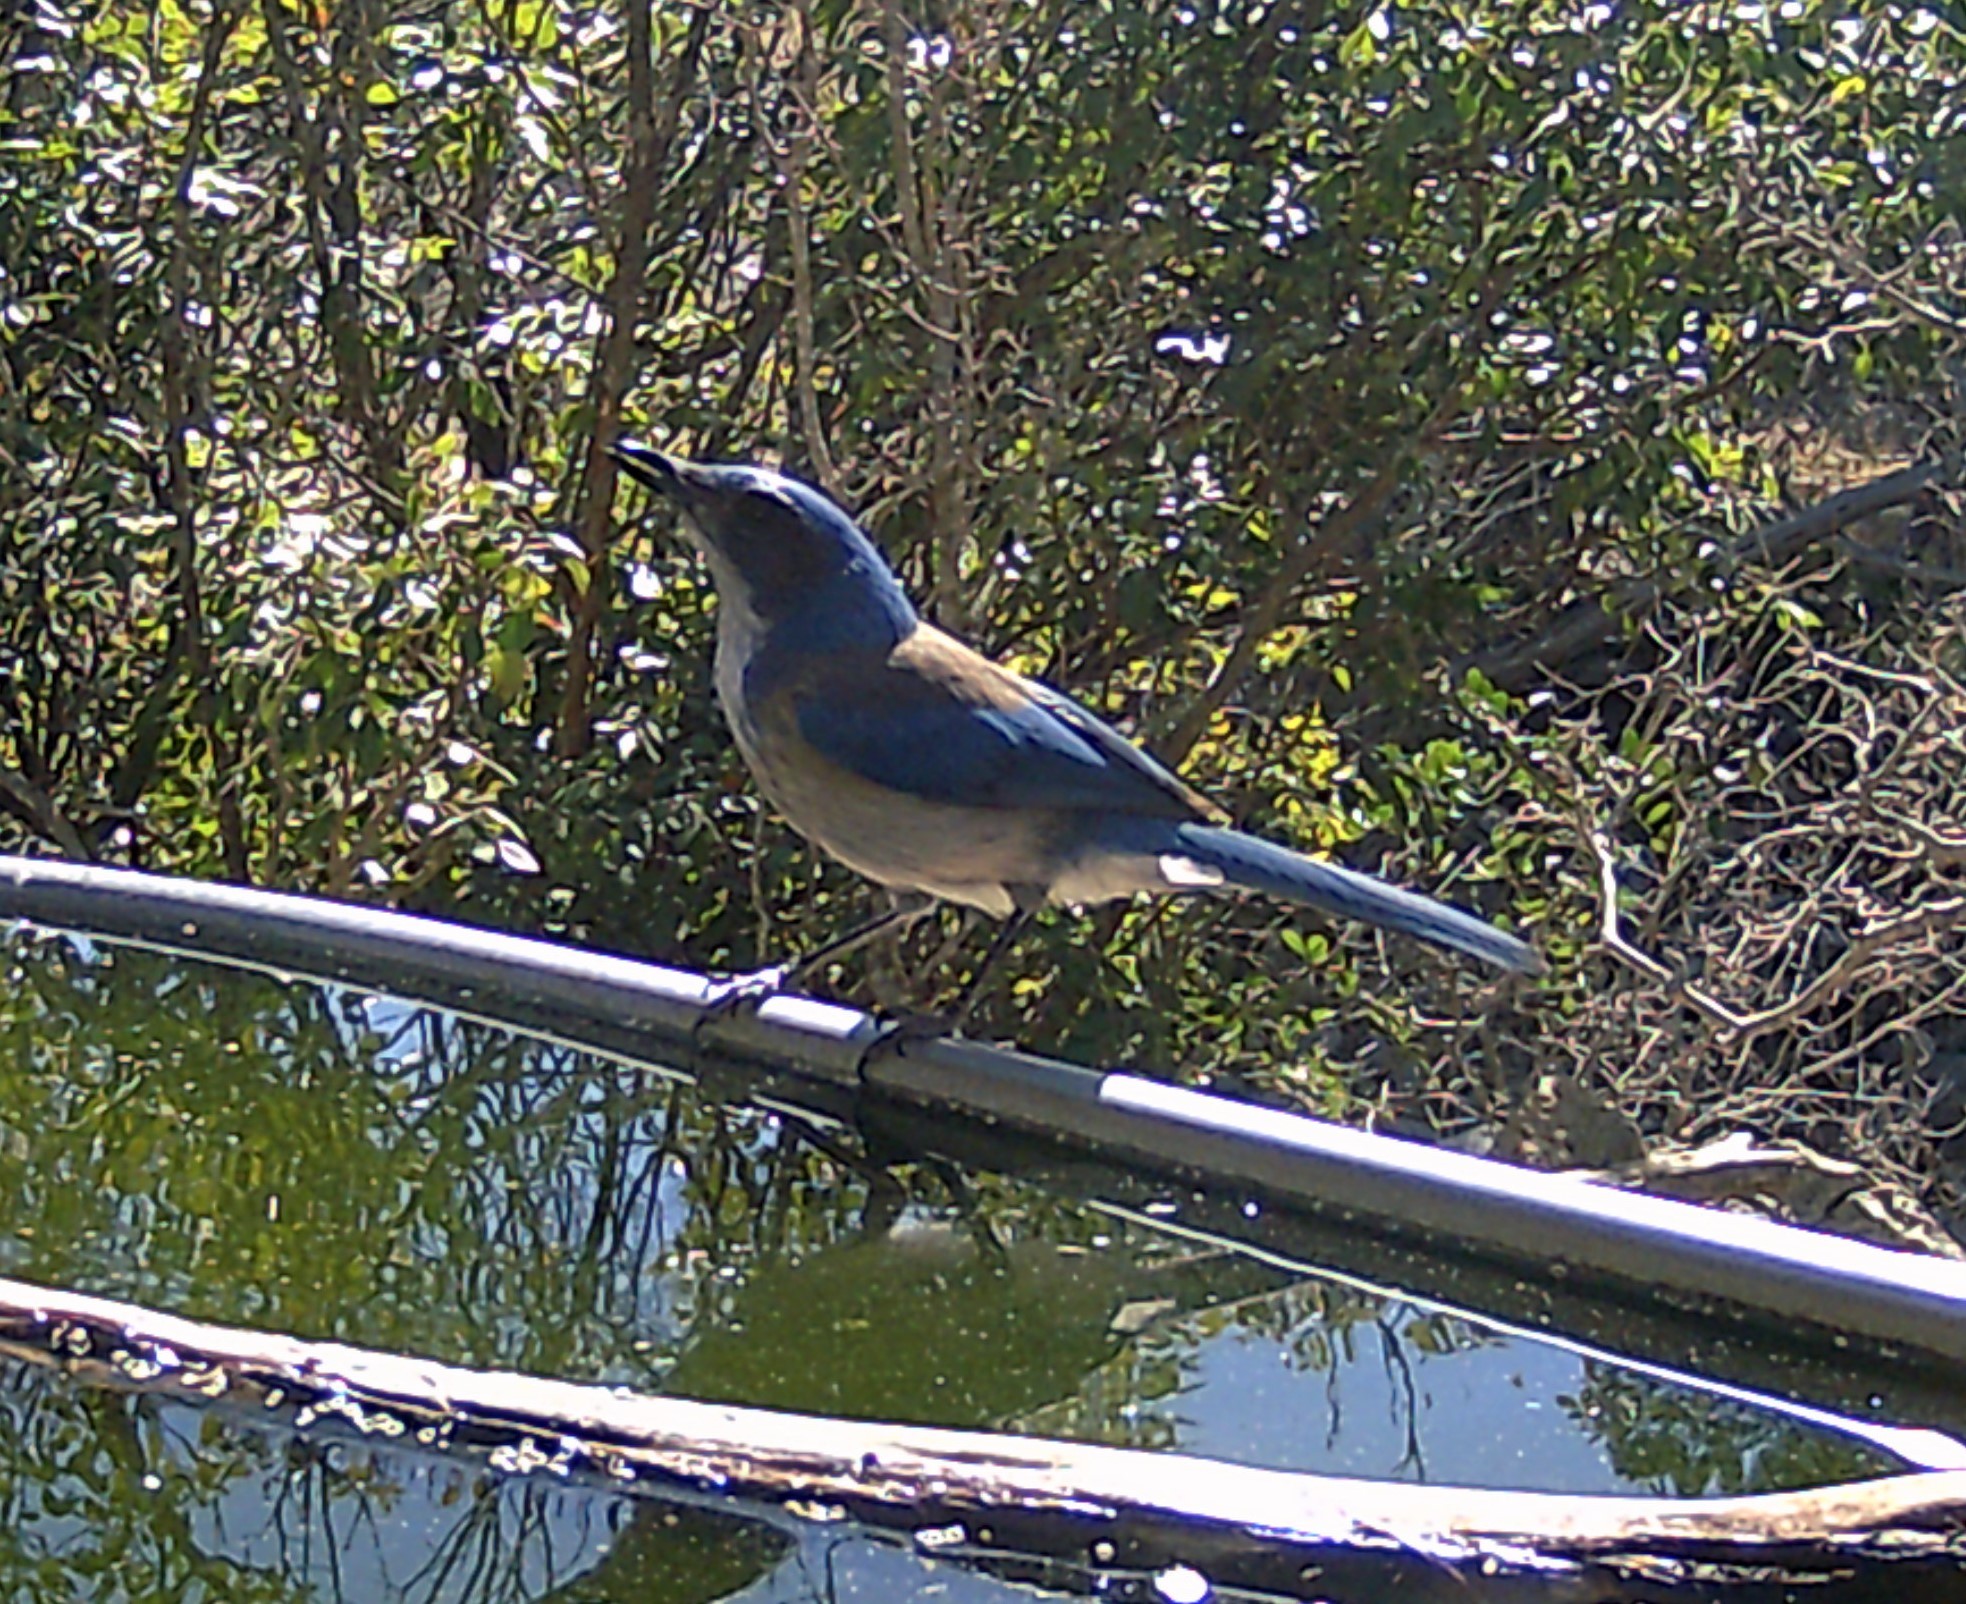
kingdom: Animalia
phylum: Chordata
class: Aves
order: Passeriformes
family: Corvidae
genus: Aphelocoma
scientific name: Aphelocoma woodhouseii
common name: Woodhouse's scrub-jay
